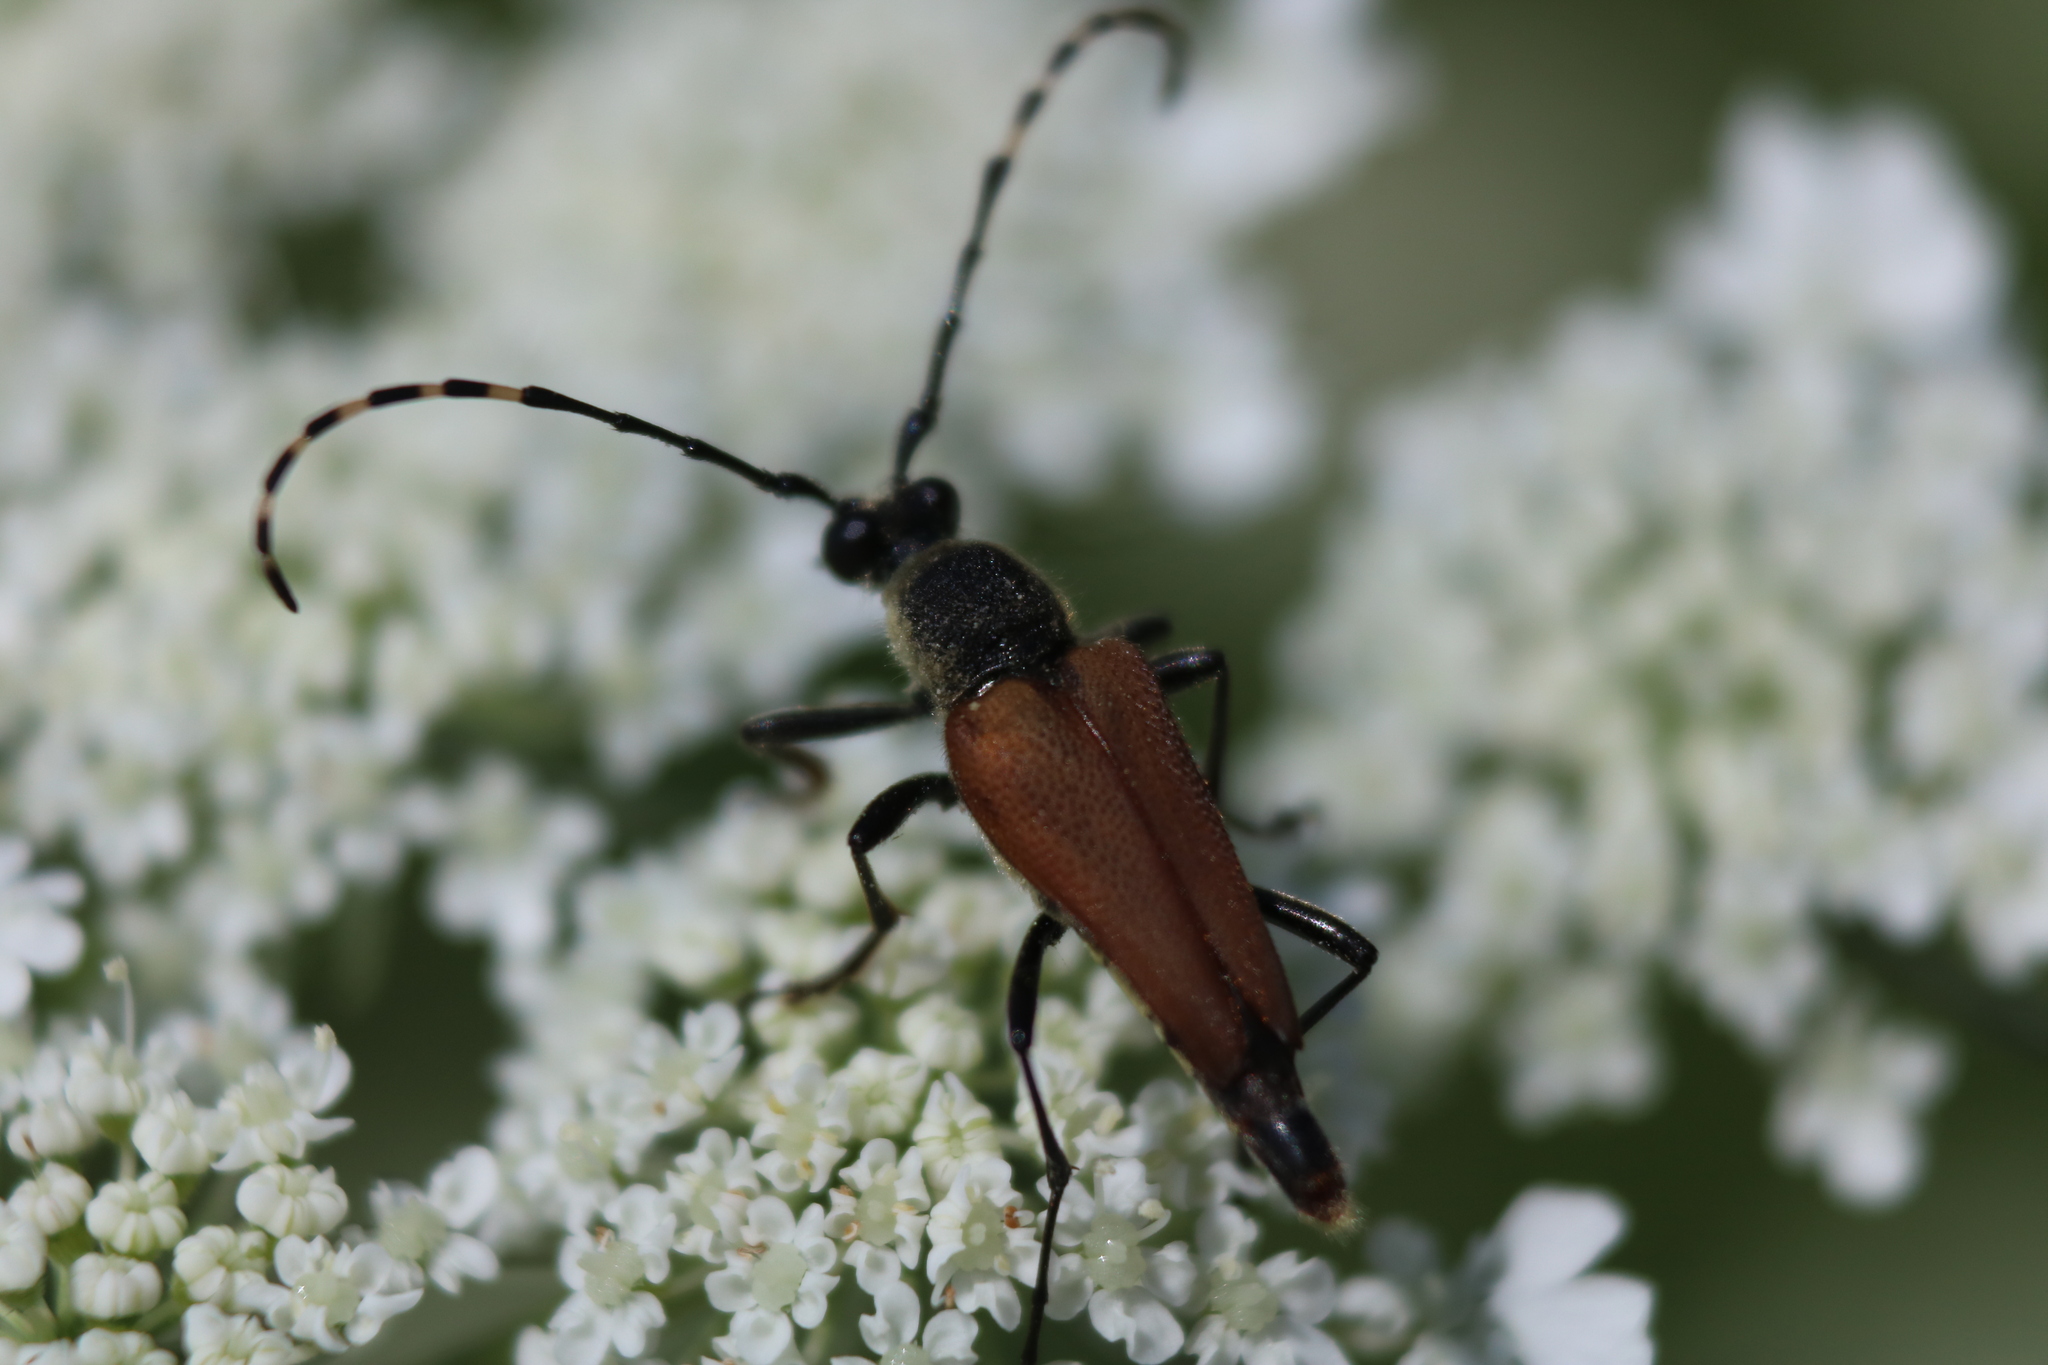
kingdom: Animalia
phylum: Arthropoda
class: Insecta
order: Coleoptera
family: Cerambycidae
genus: Brachyleptura
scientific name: Brachyleptura rubrica
